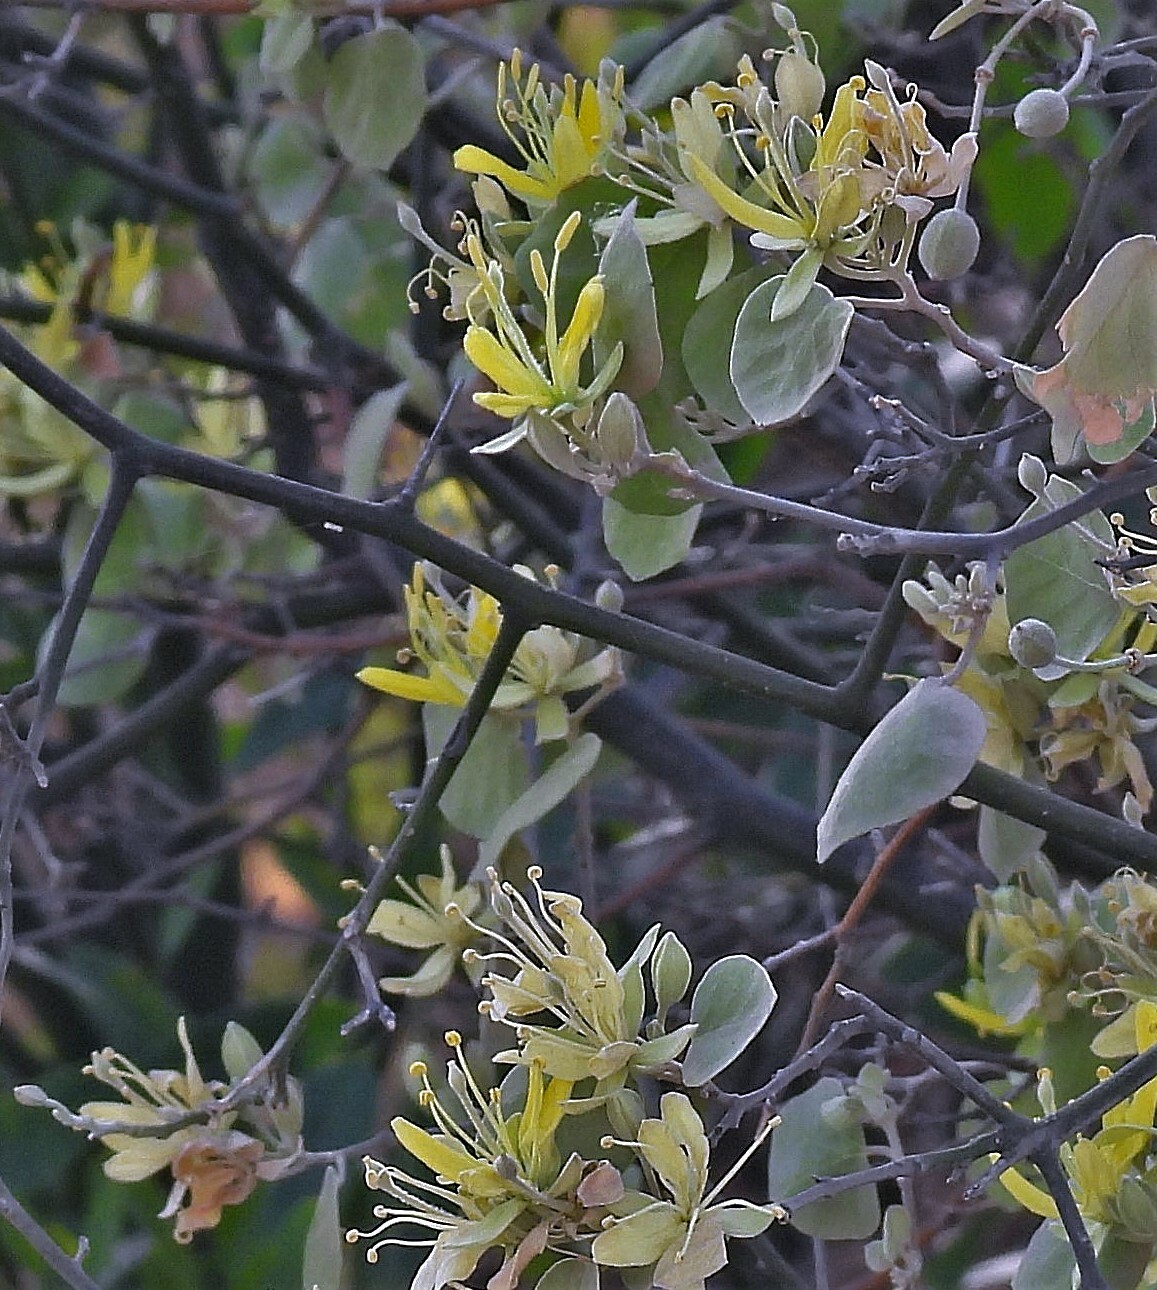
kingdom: Plantae
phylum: Tracheophyta
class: Magnoliopsida
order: Brassicales
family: Capparaceae
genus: Capparicordis
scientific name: Capparicordis tweedieana
